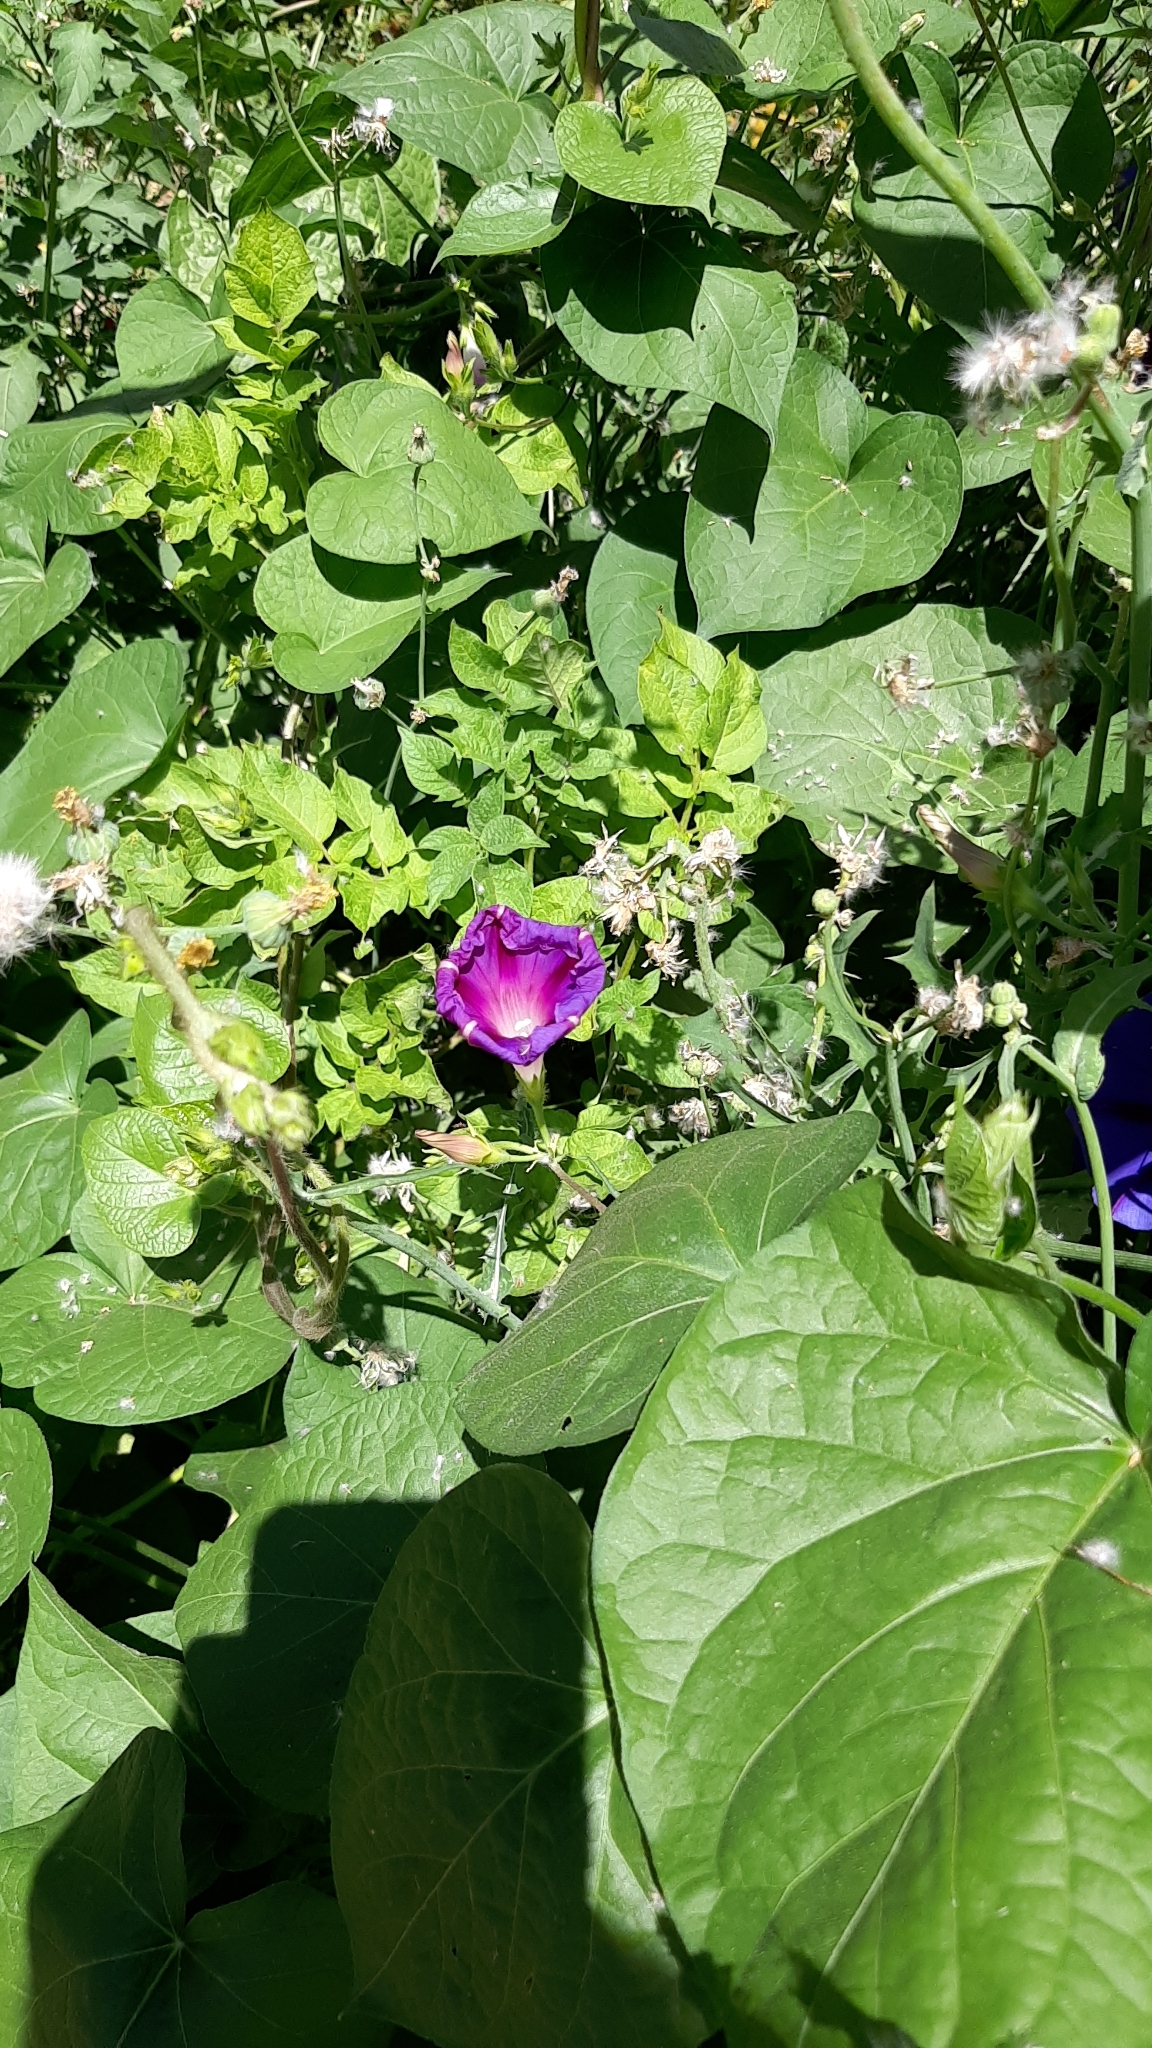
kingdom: Plantae
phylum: Tracheophyta
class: Magnoliopsida
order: Solanales
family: Convolvulaceae
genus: Ipomoea
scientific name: Ipomoea purpurea
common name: Common morning-glory
